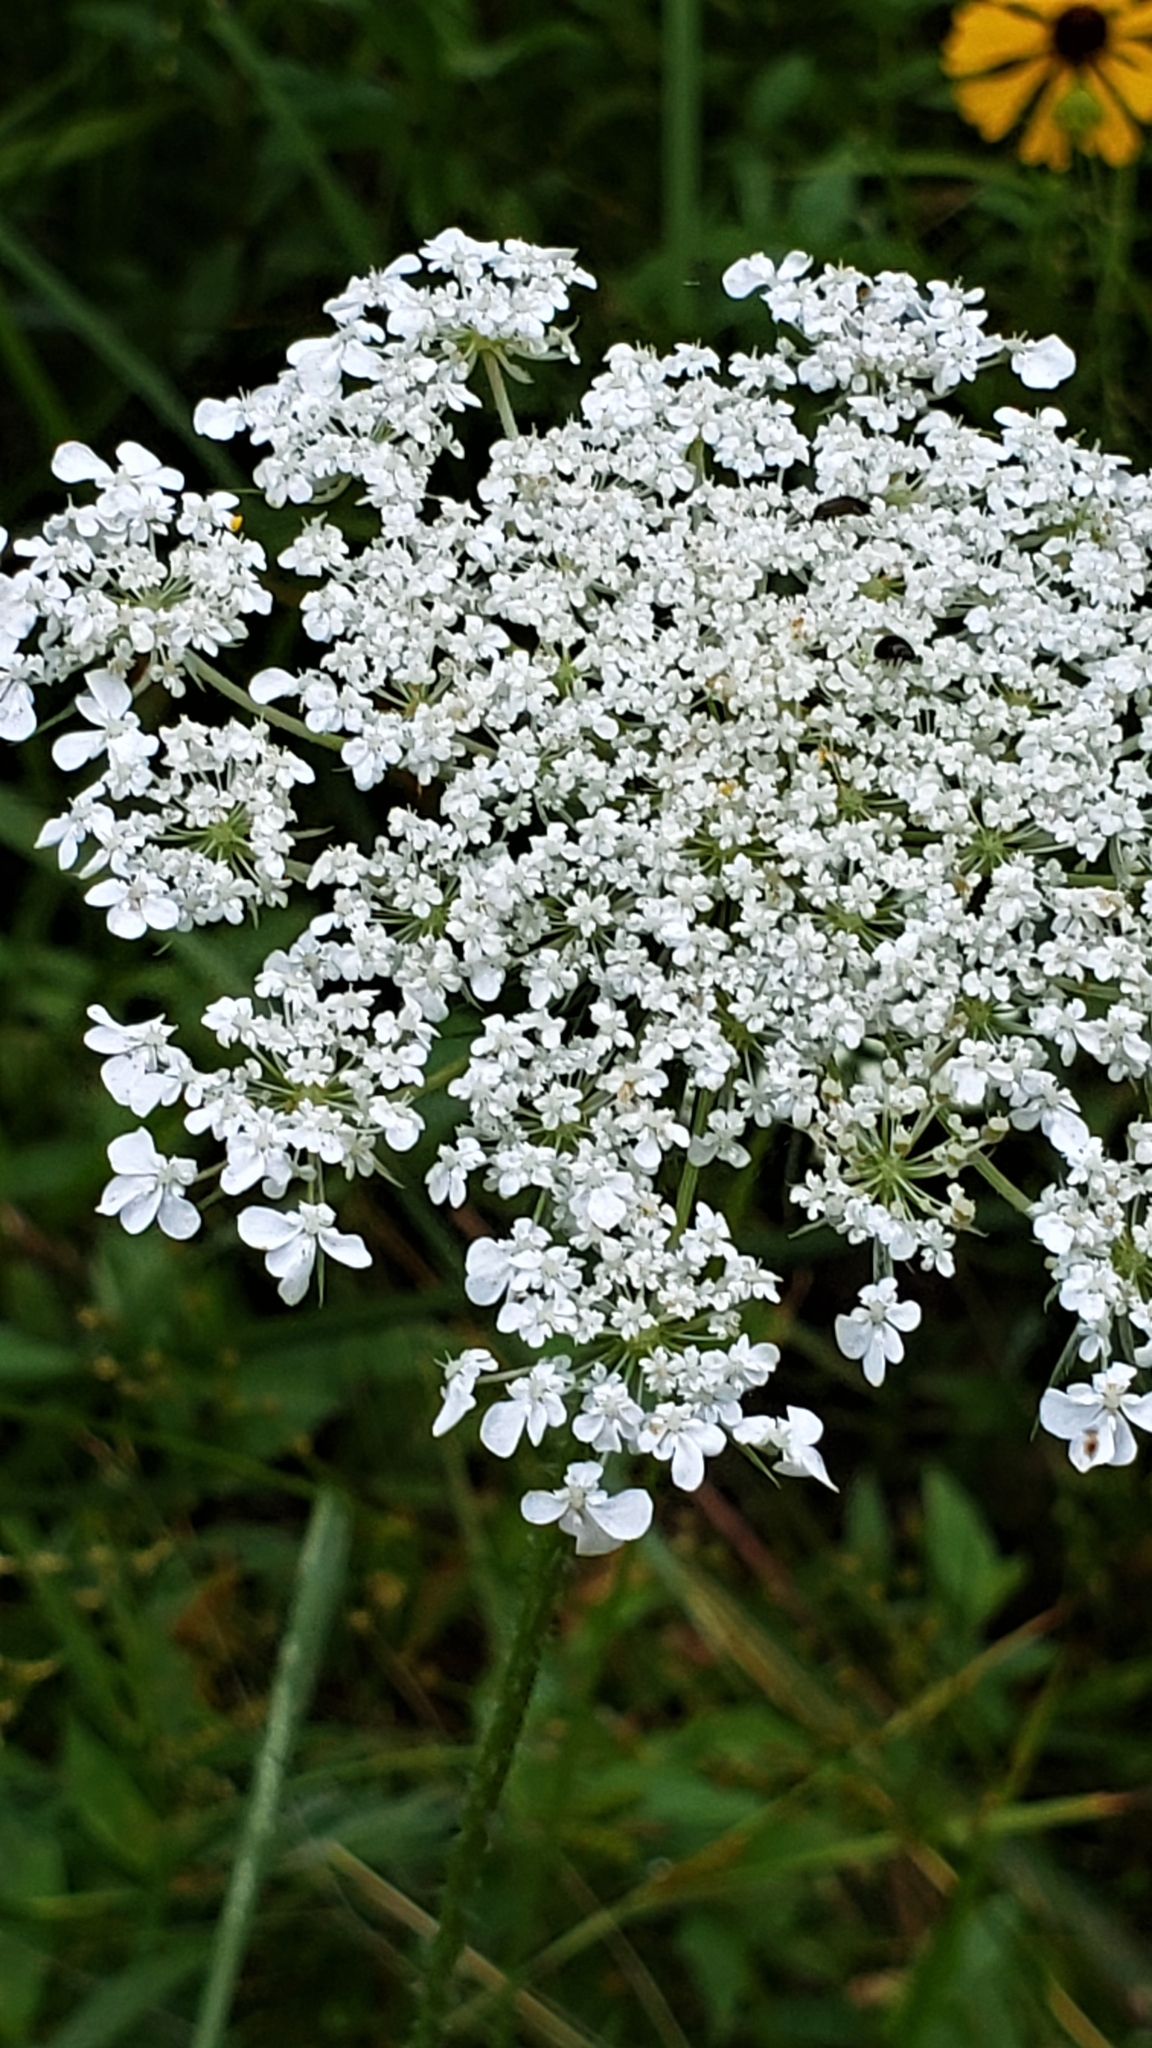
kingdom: Plantae
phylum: Tracheophyta
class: Magnoliopsida
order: Apiales
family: Apiaceae
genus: Daucus
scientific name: Daucus carota
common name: Wild carrot
